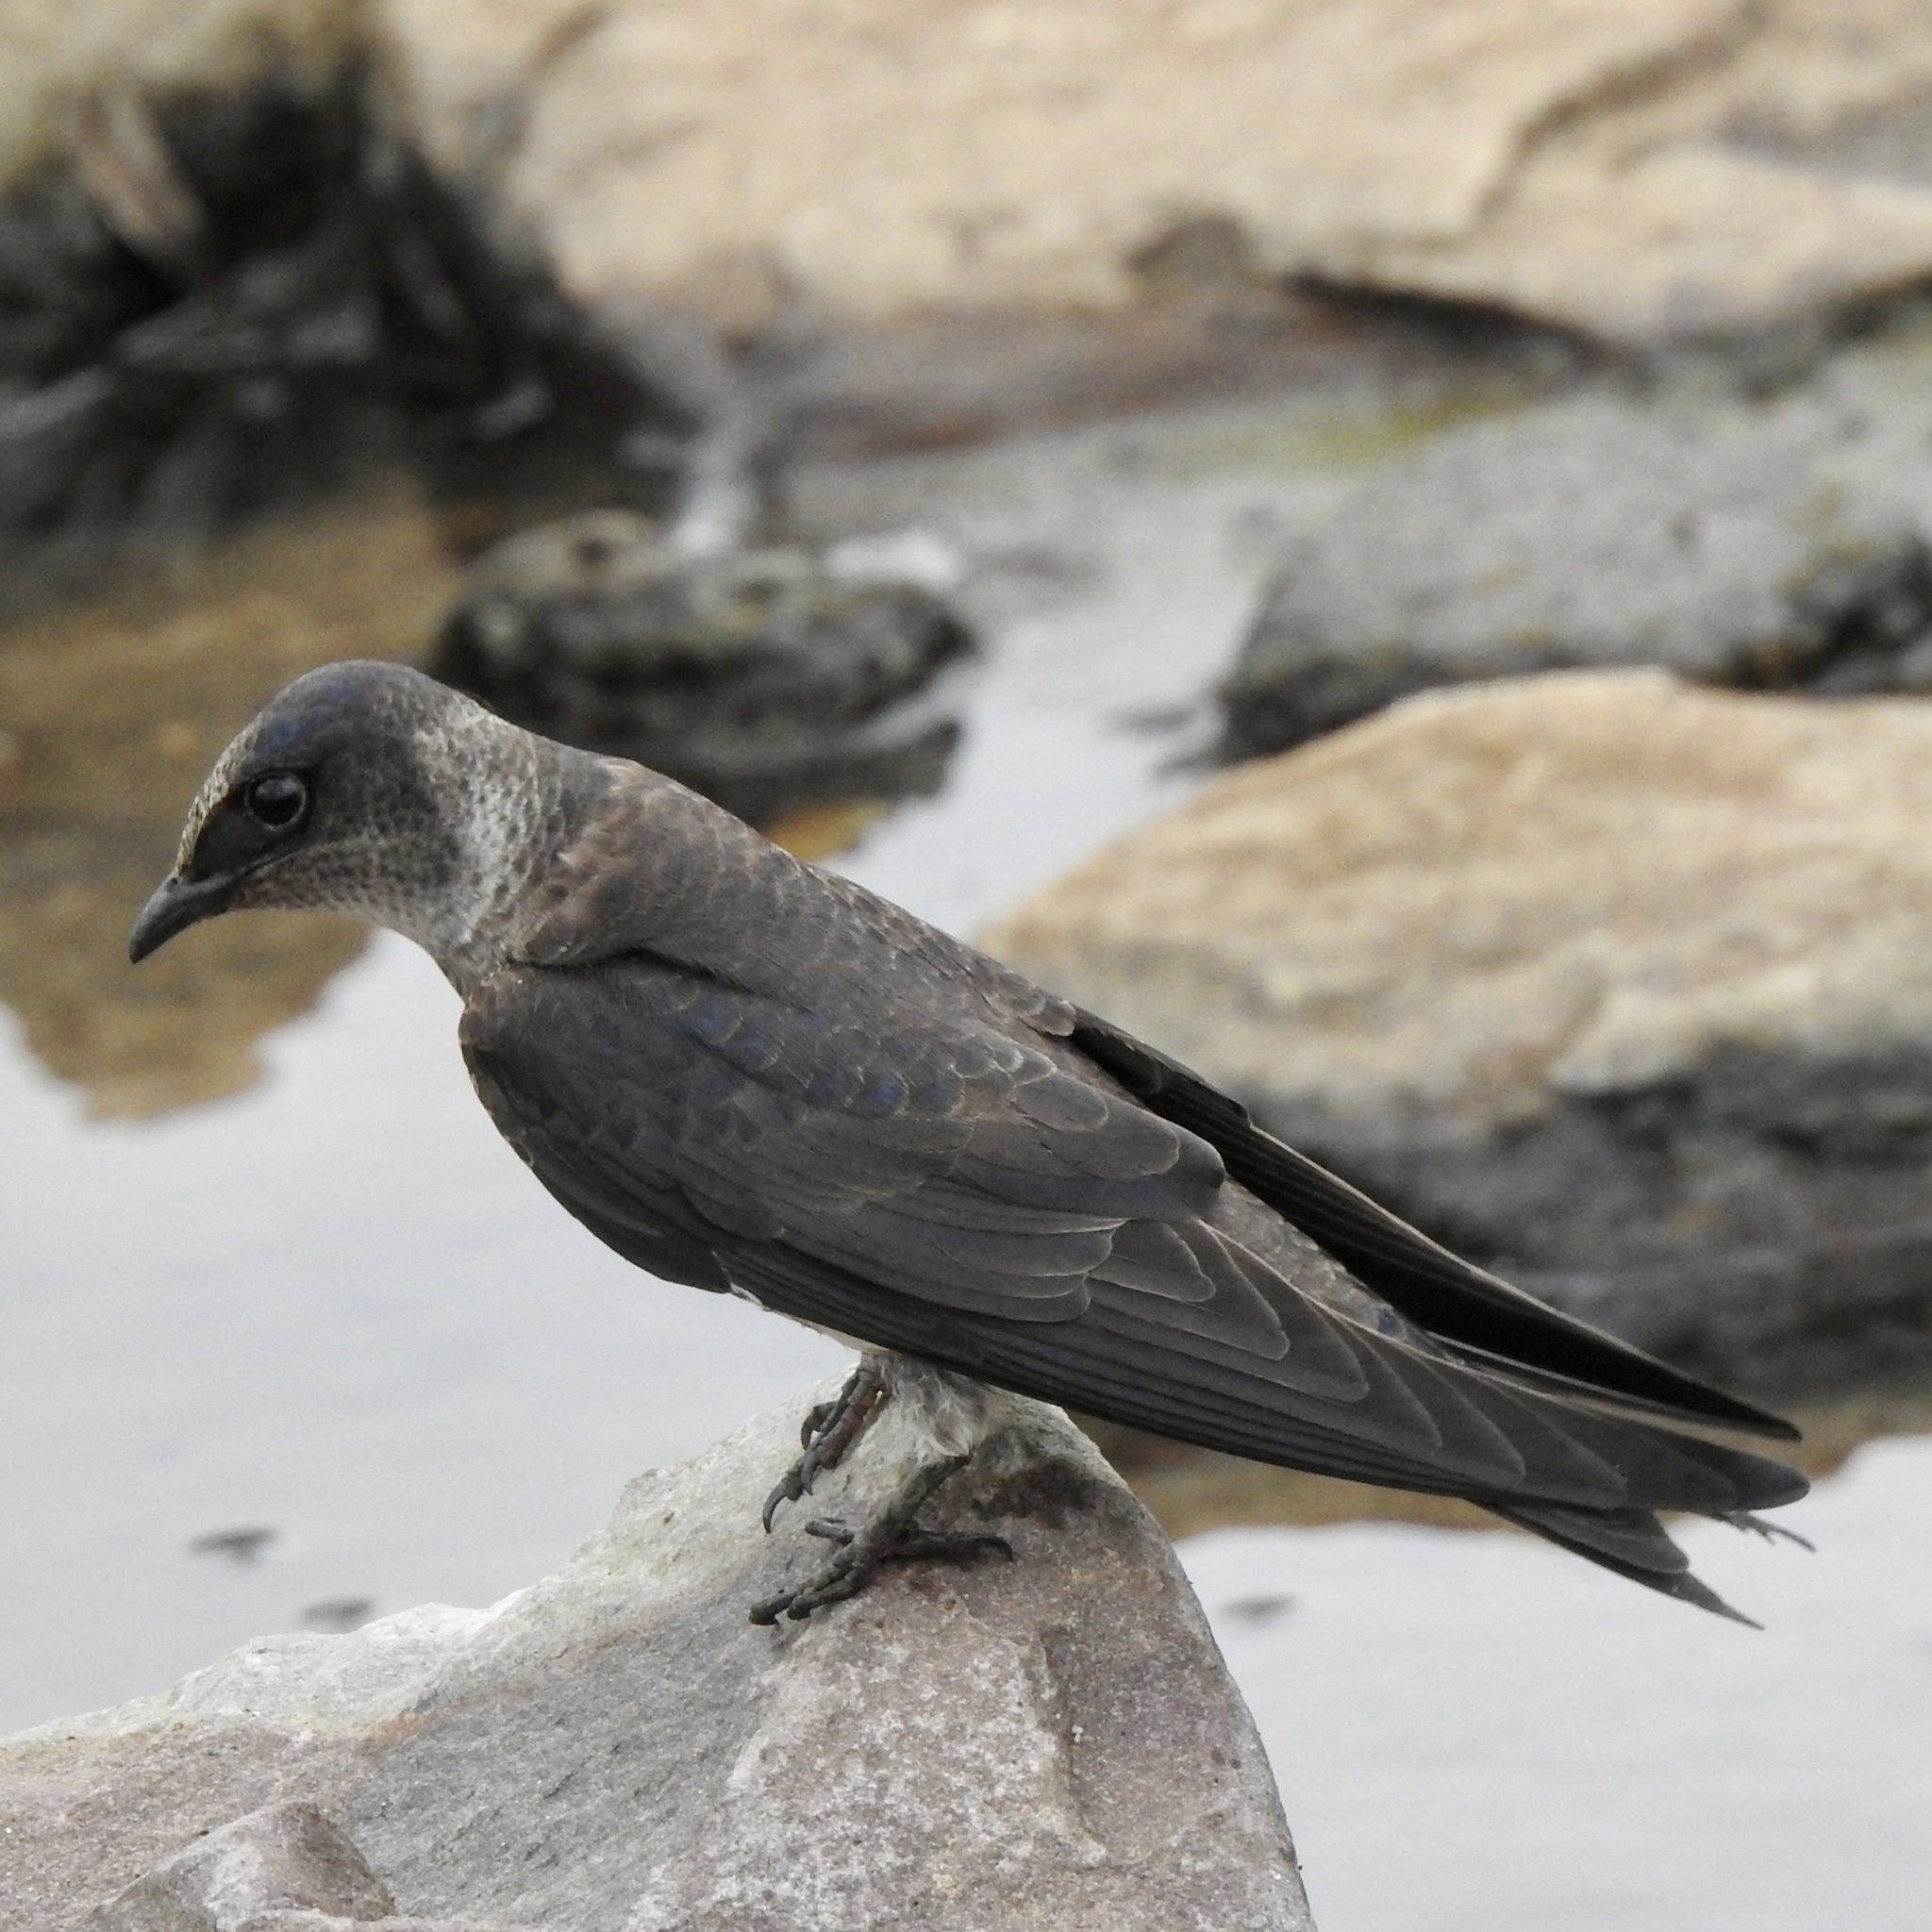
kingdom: Animalia
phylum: Chordata
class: Aves
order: Passeriformes
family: Hirundinidae
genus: Progne
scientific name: Progne subis
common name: Purple martin
